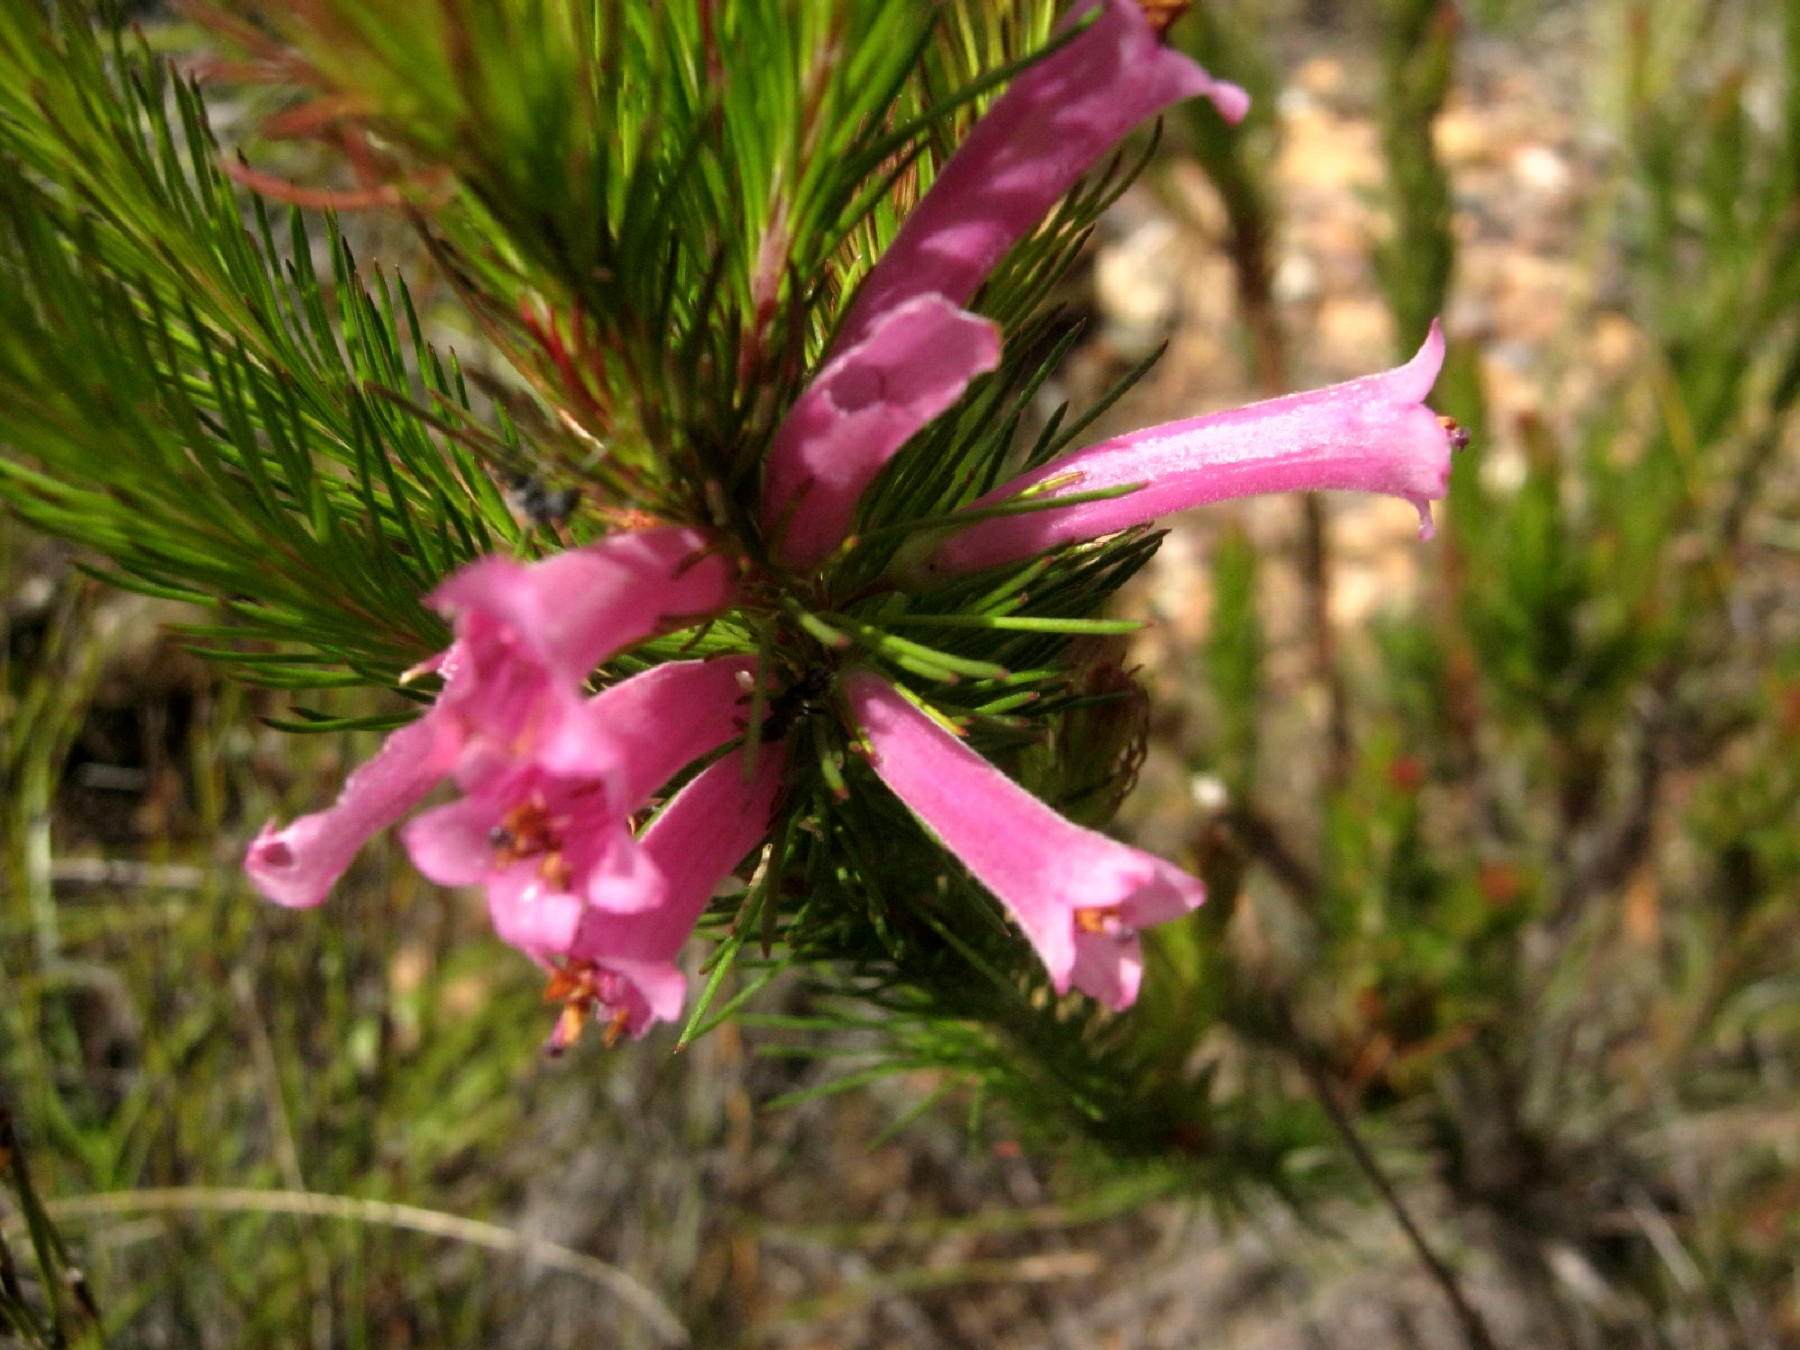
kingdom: Plantae
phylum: Tracheophyta
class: Magnoliopsida
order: Ericales
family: Ericaceae
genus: Erica
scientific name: Erica vestita
